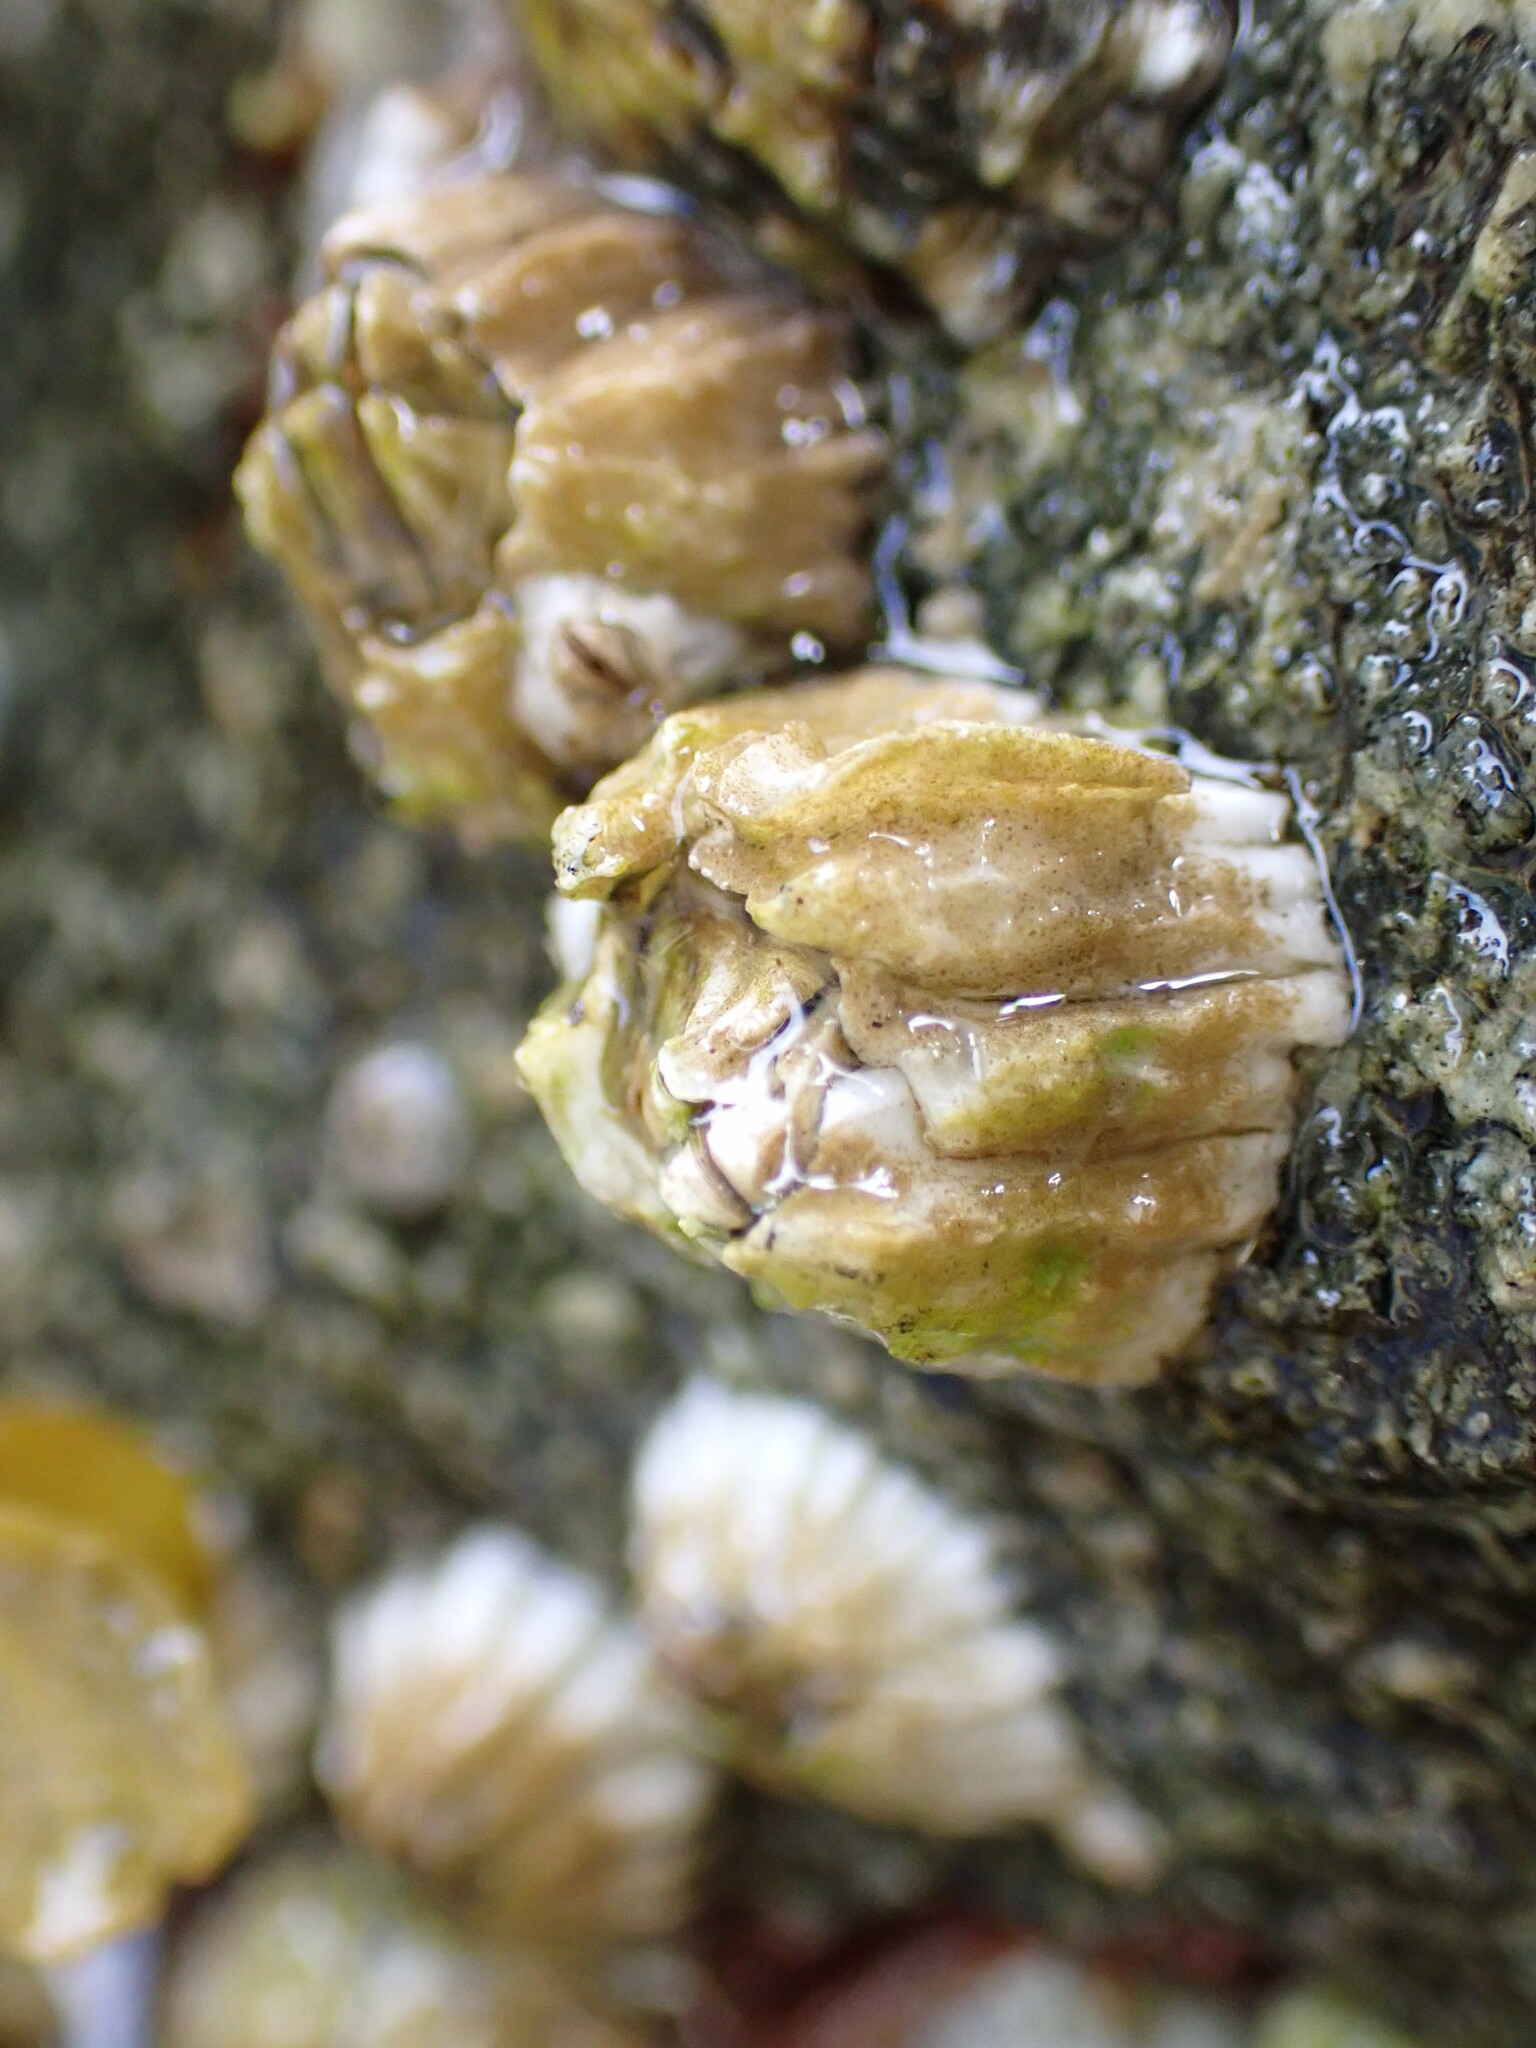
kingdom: Animalia
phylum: Arthropoda
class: Maxillopoda
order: Sessilia
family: Balanidae
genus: Balanus
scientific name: Balanus glandula
